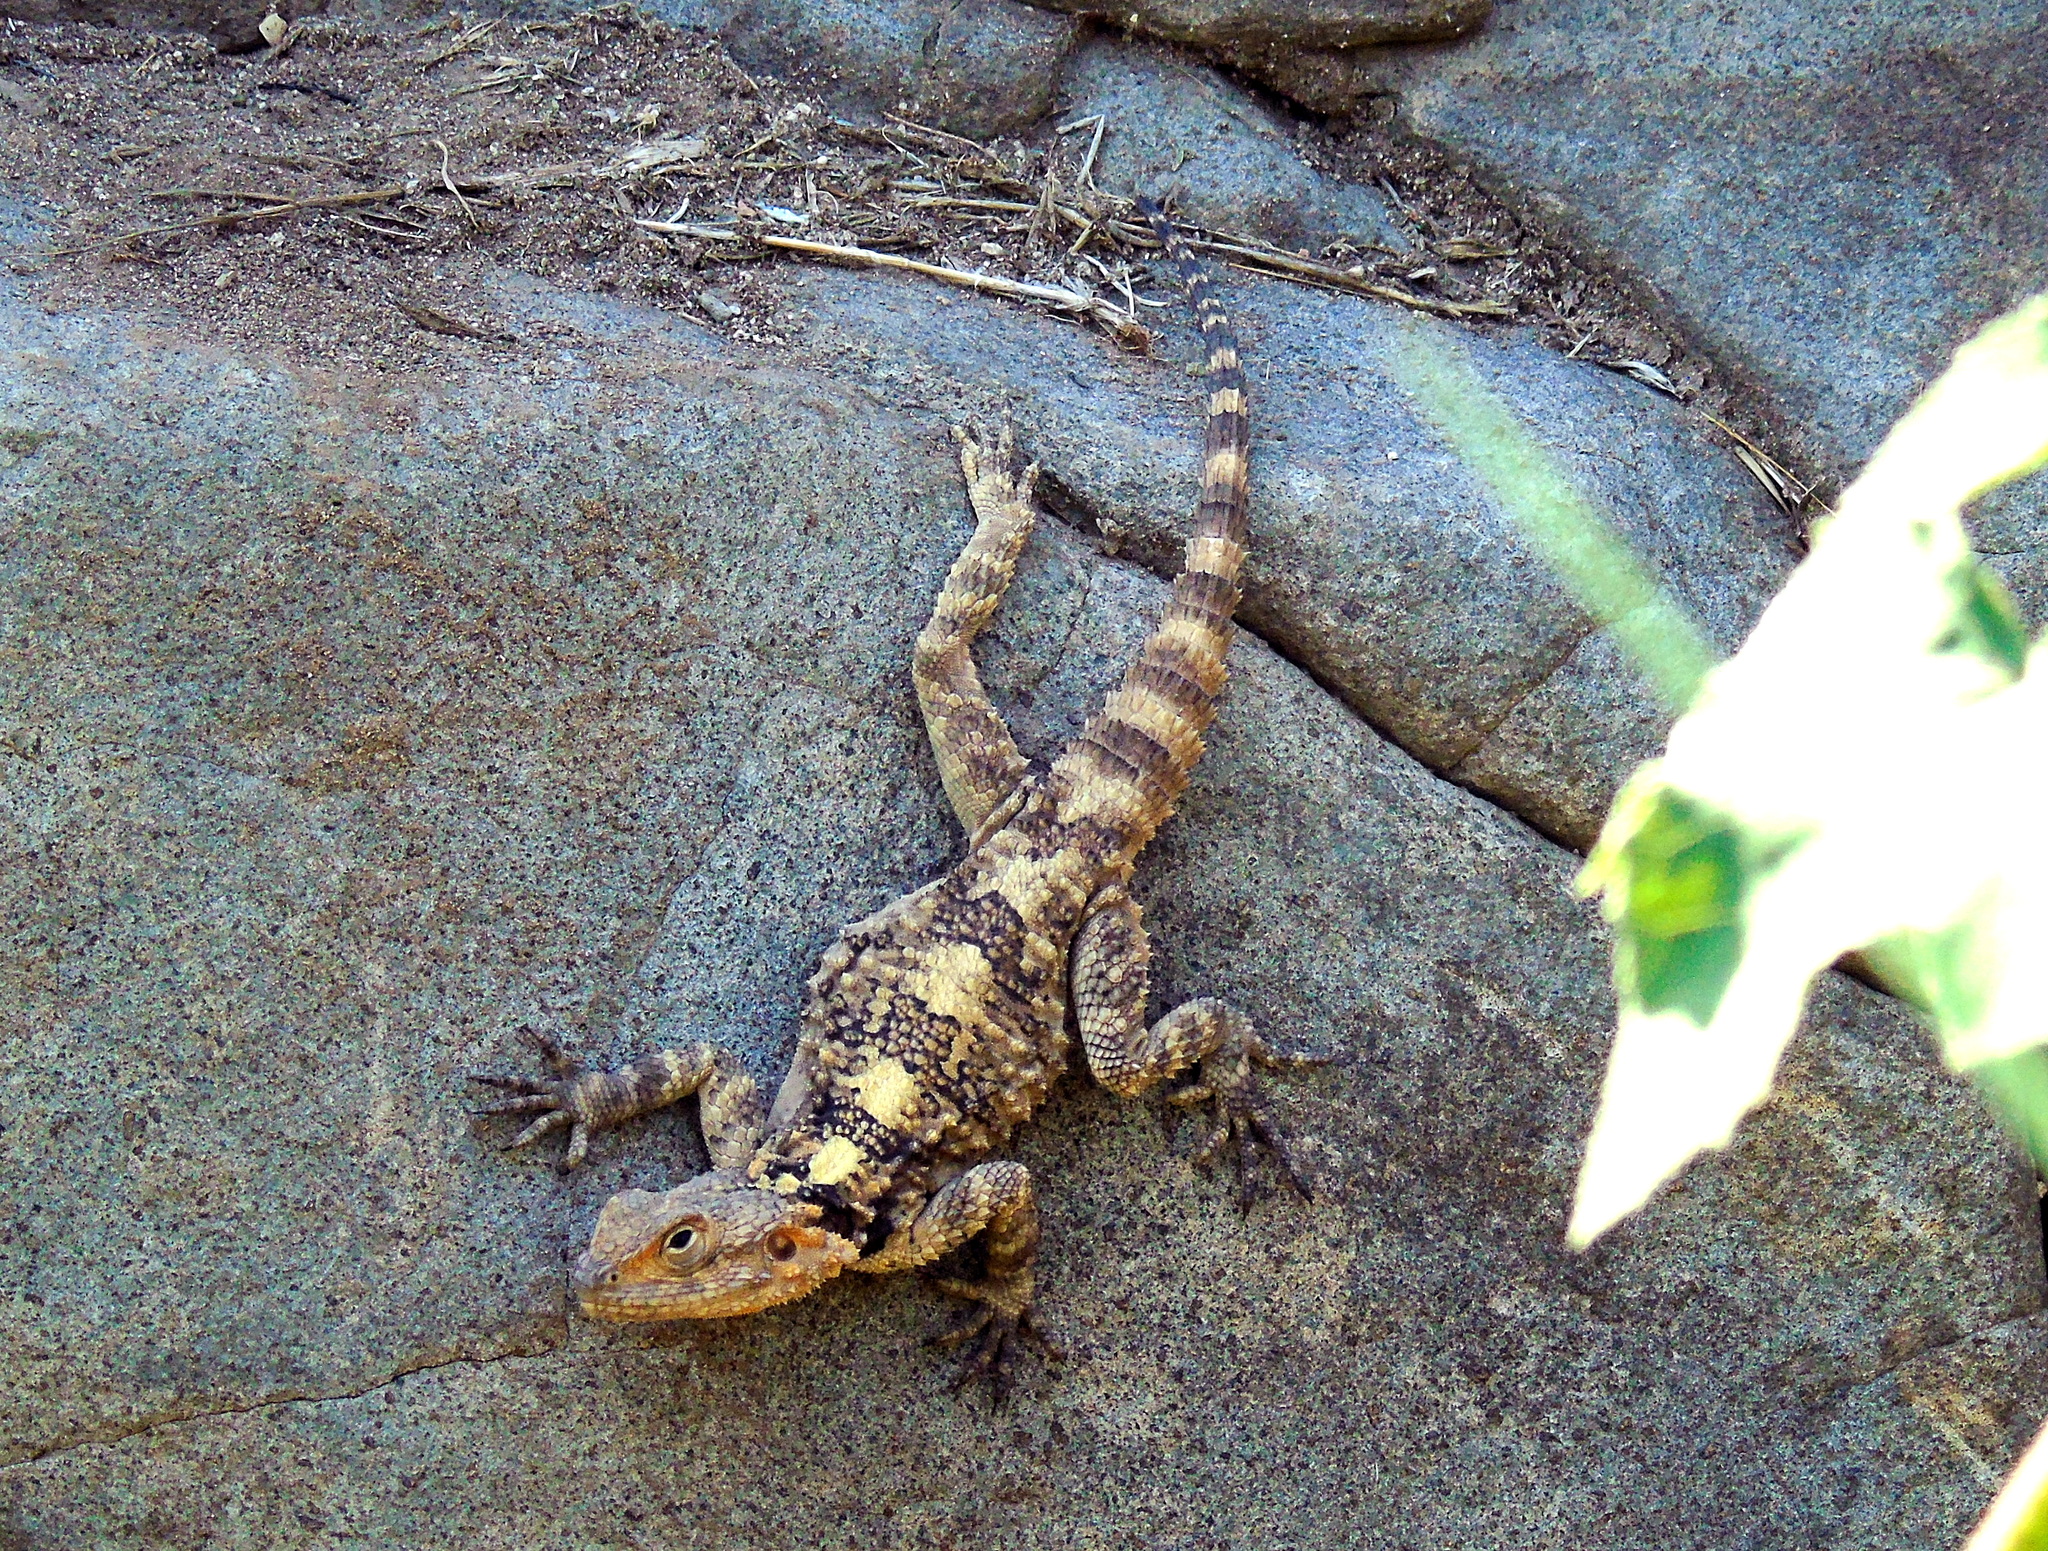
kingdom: Animalia
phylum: Chordata
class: Squamata
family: Agamidae
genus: Stellagama
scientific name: Stellagama stellio
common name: Starred agama
